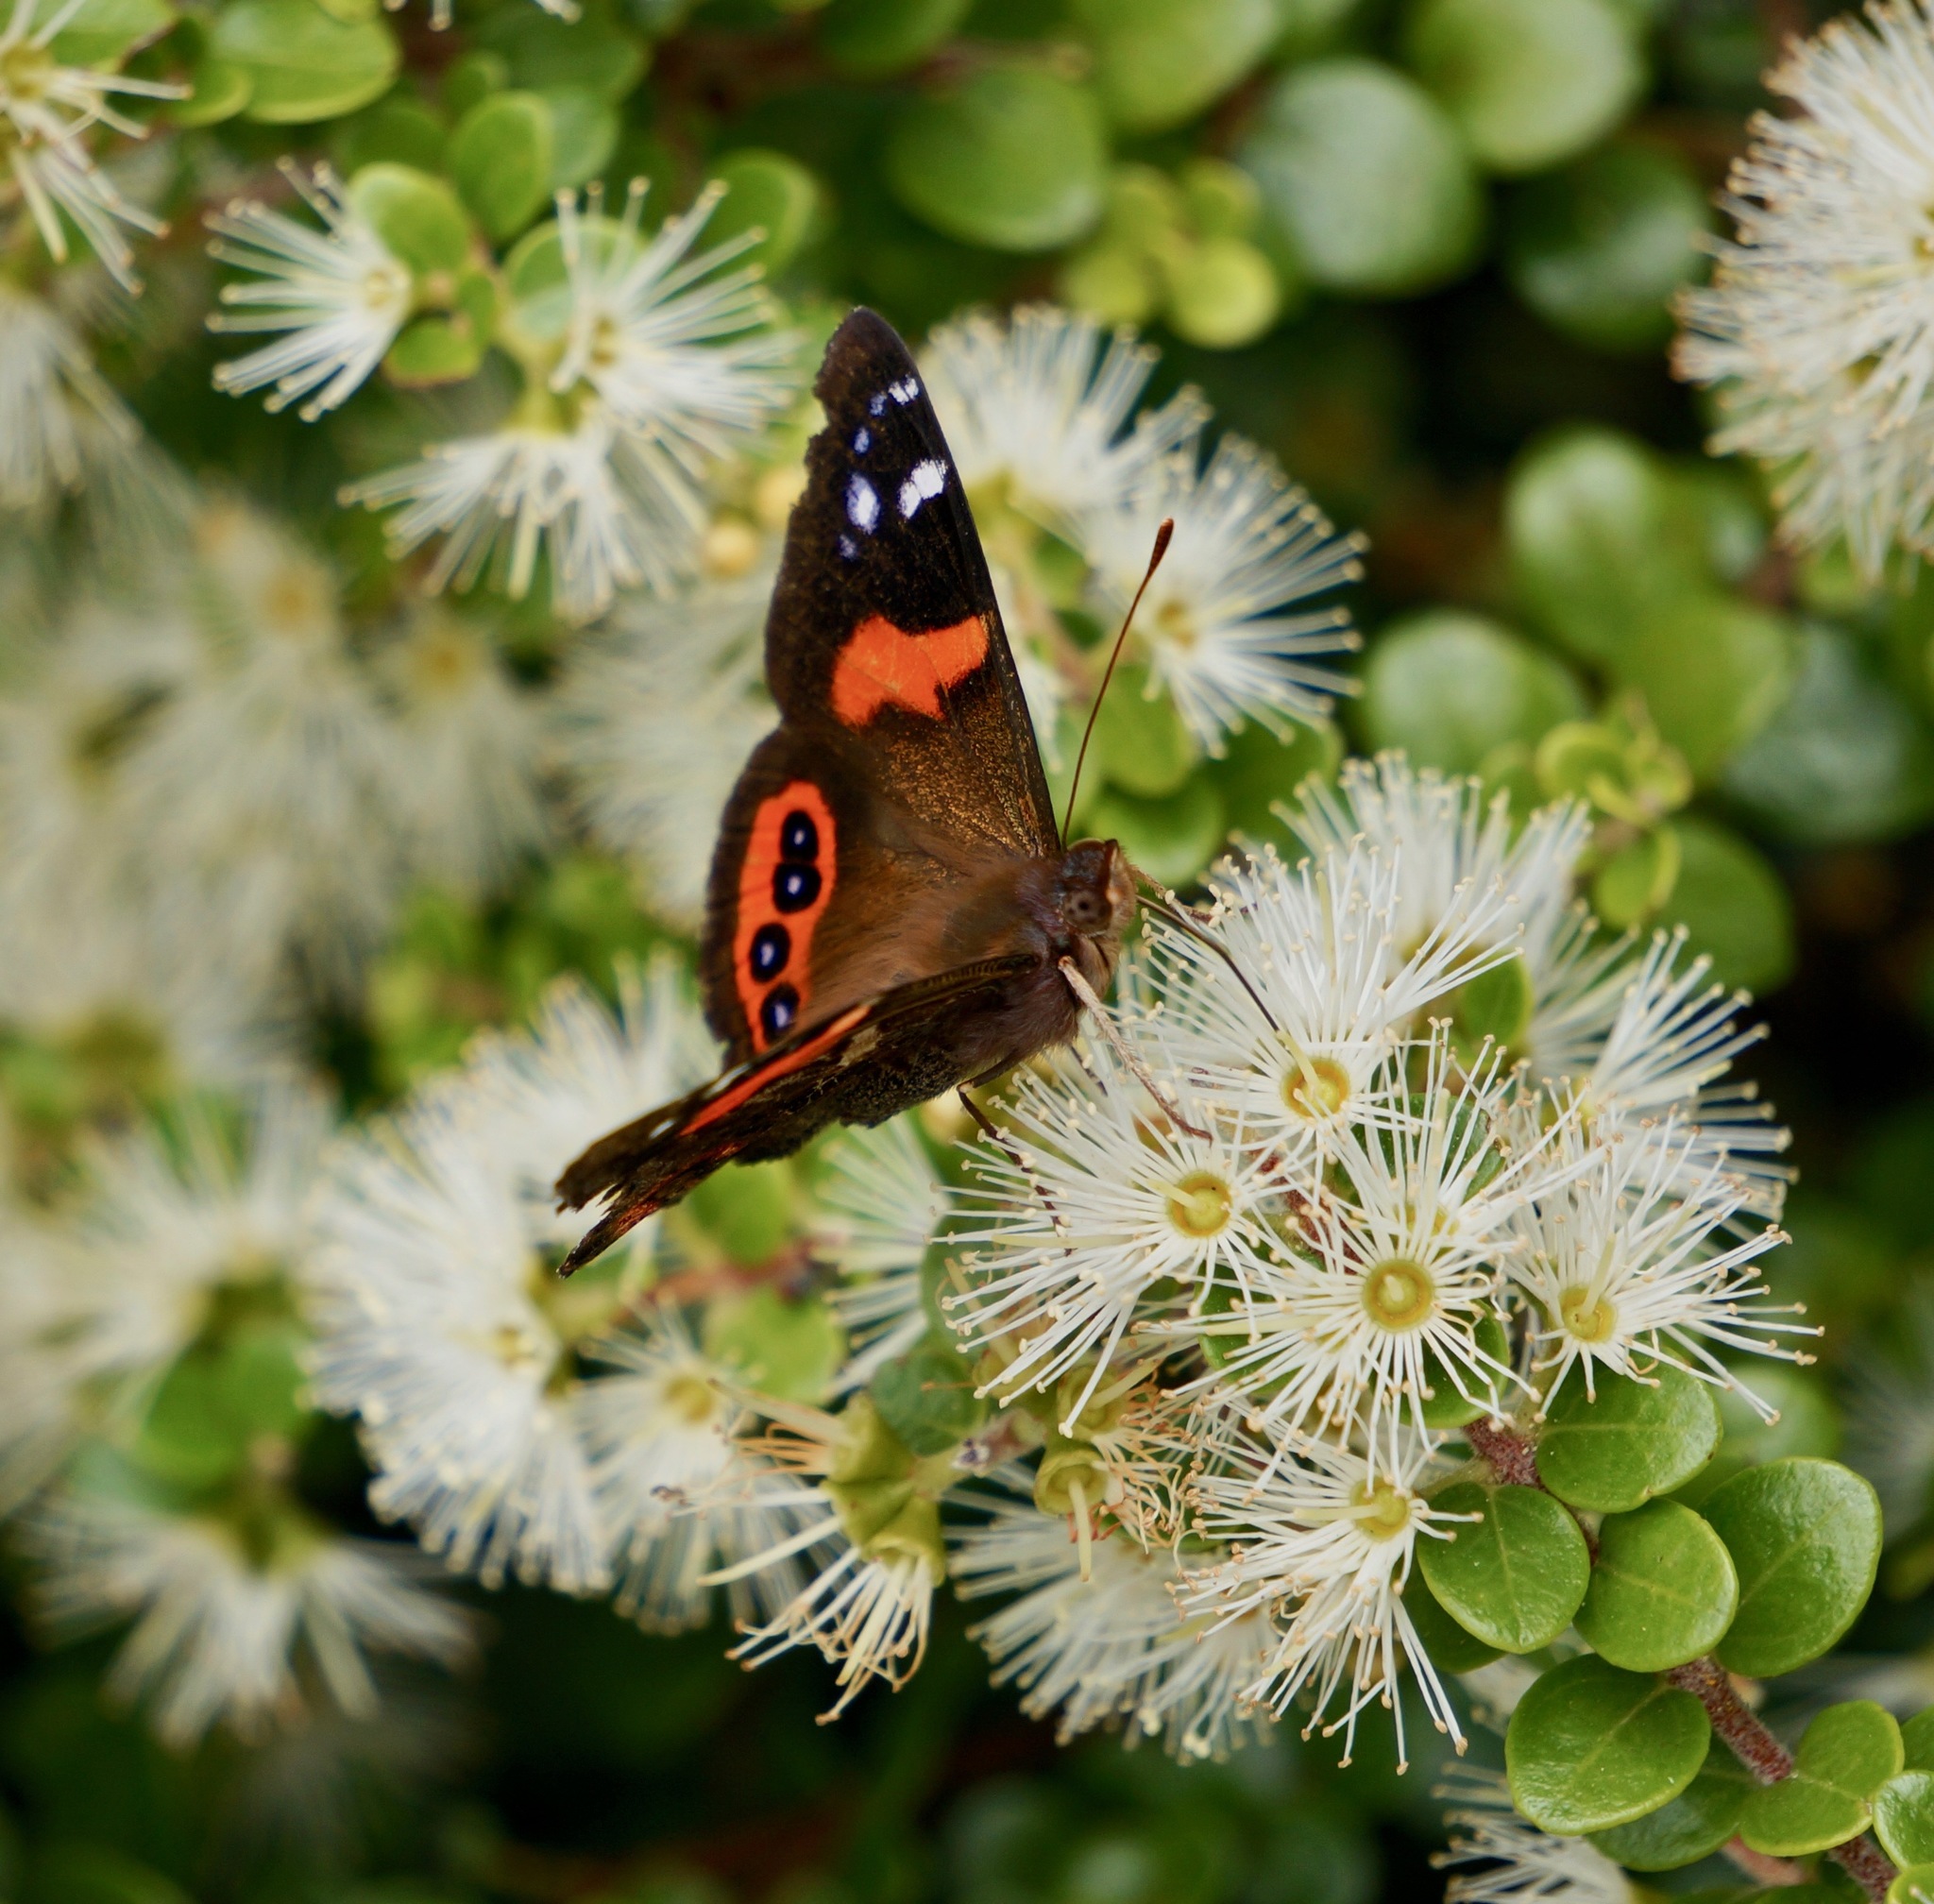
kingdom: Animalia
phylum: Arthropoda
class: Insecta
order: Lepidoptera
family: Nymphalidae
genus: Vanessa
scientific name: Vanessa gonerilla
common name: New zealand red admiral
